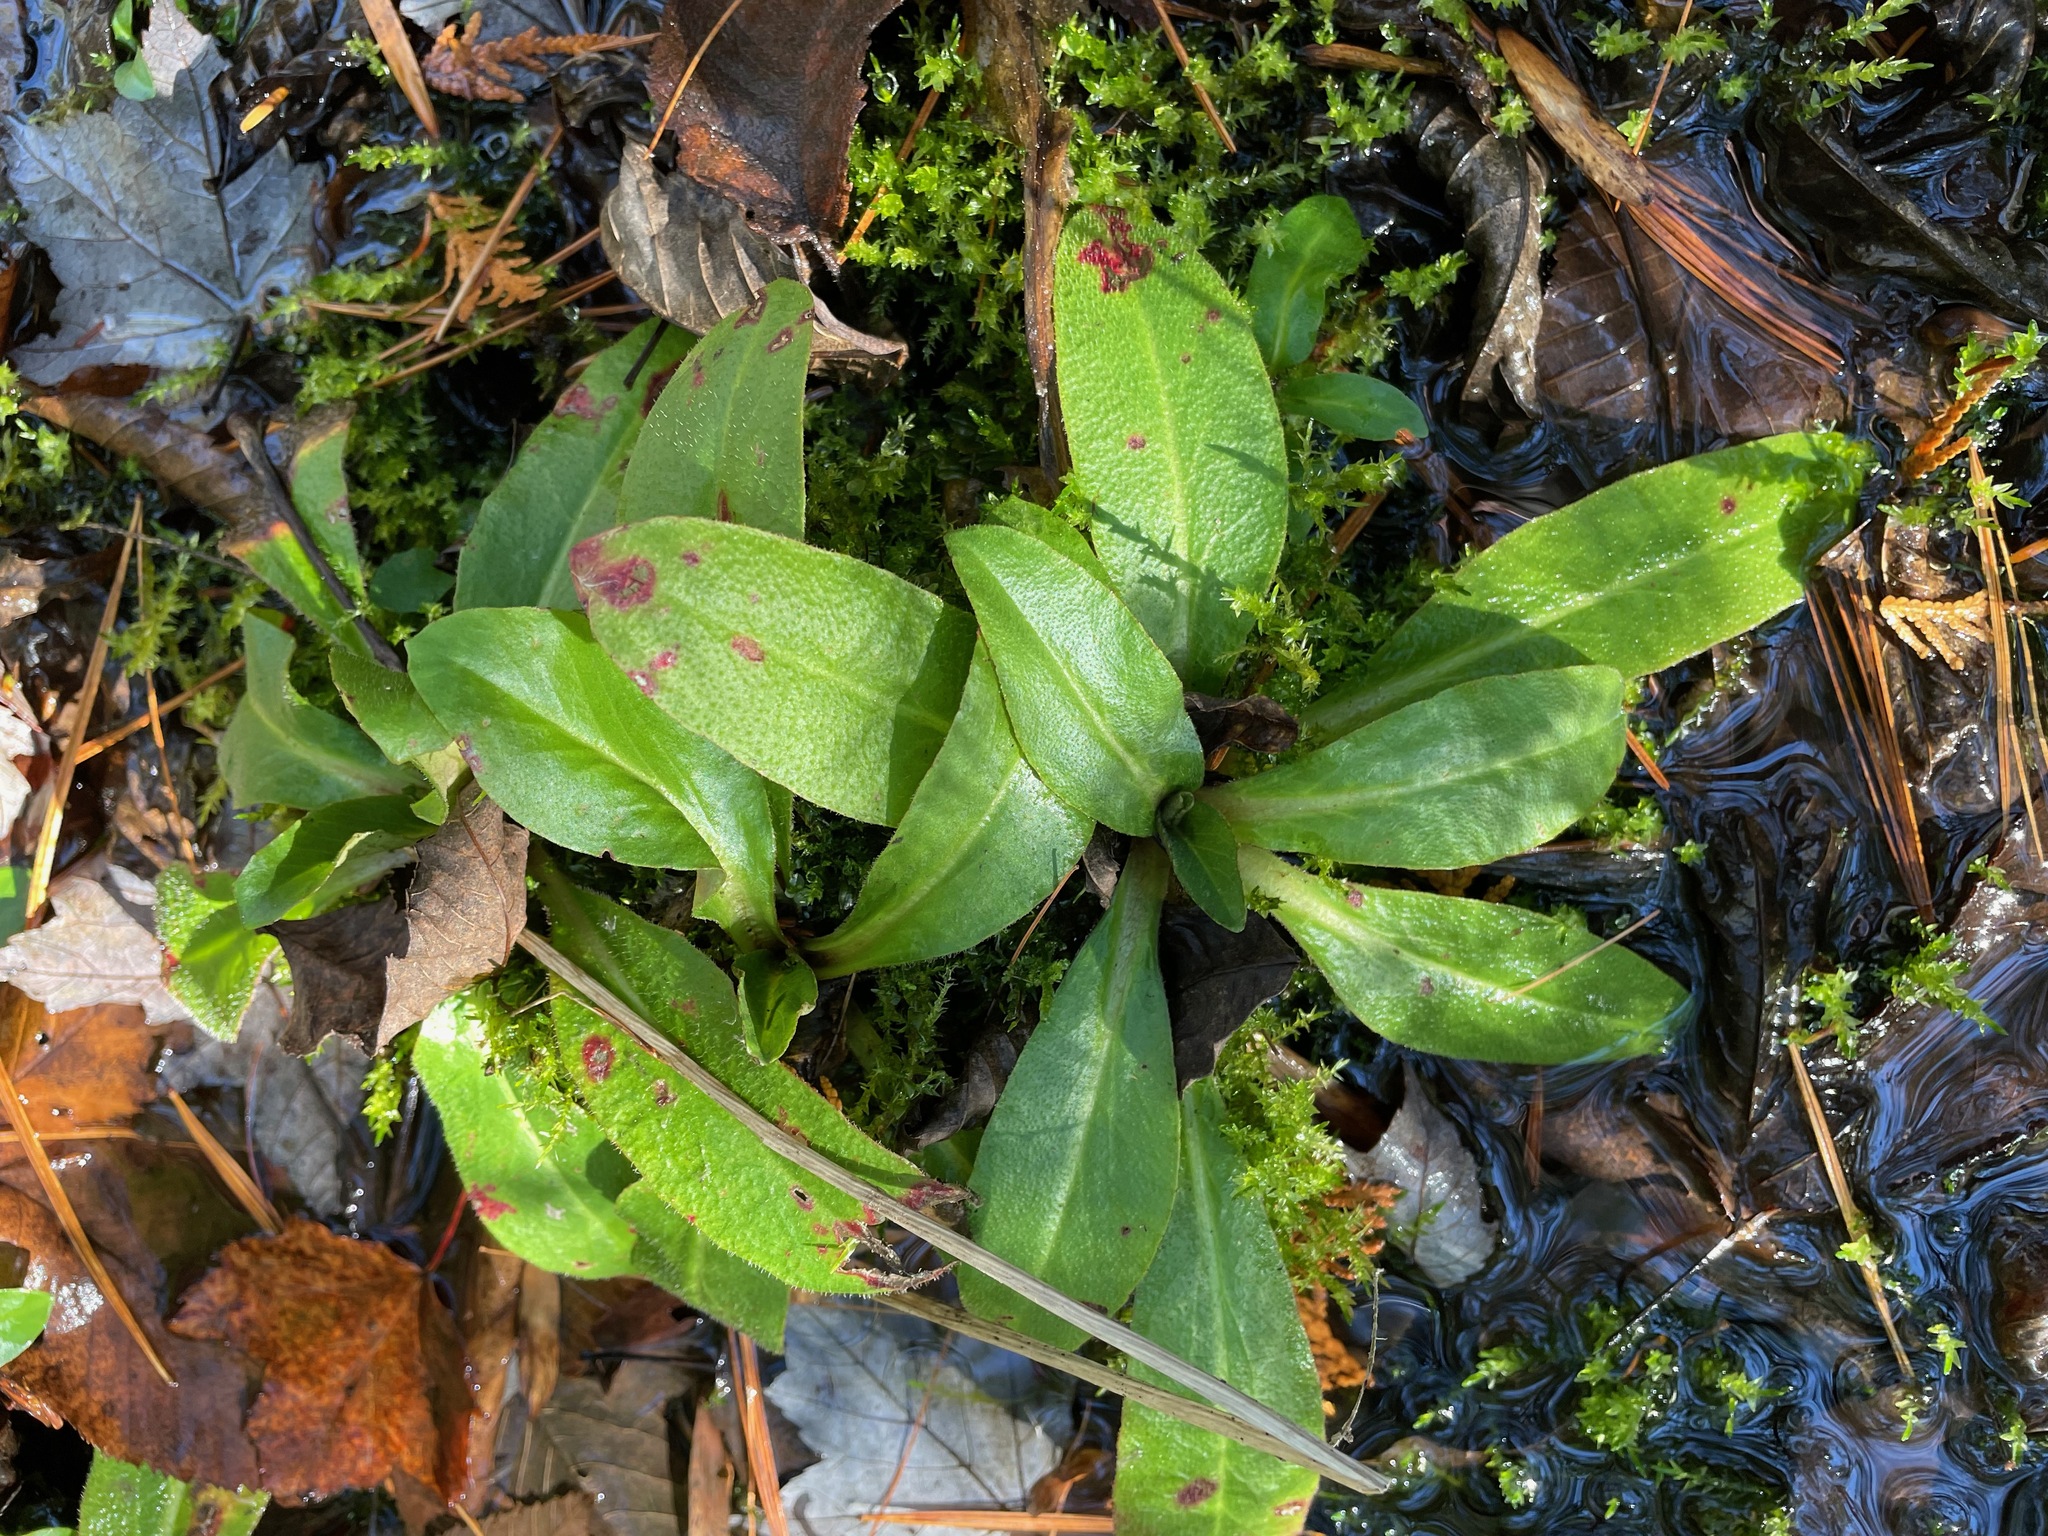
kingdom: Plantae
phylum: Tracheophyta
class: Magnoliopsida
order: Saxifragales
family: Saxifragaceae
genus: Micranthes
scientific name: Micranthes pensylvanica
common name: Marsh saxifrage
